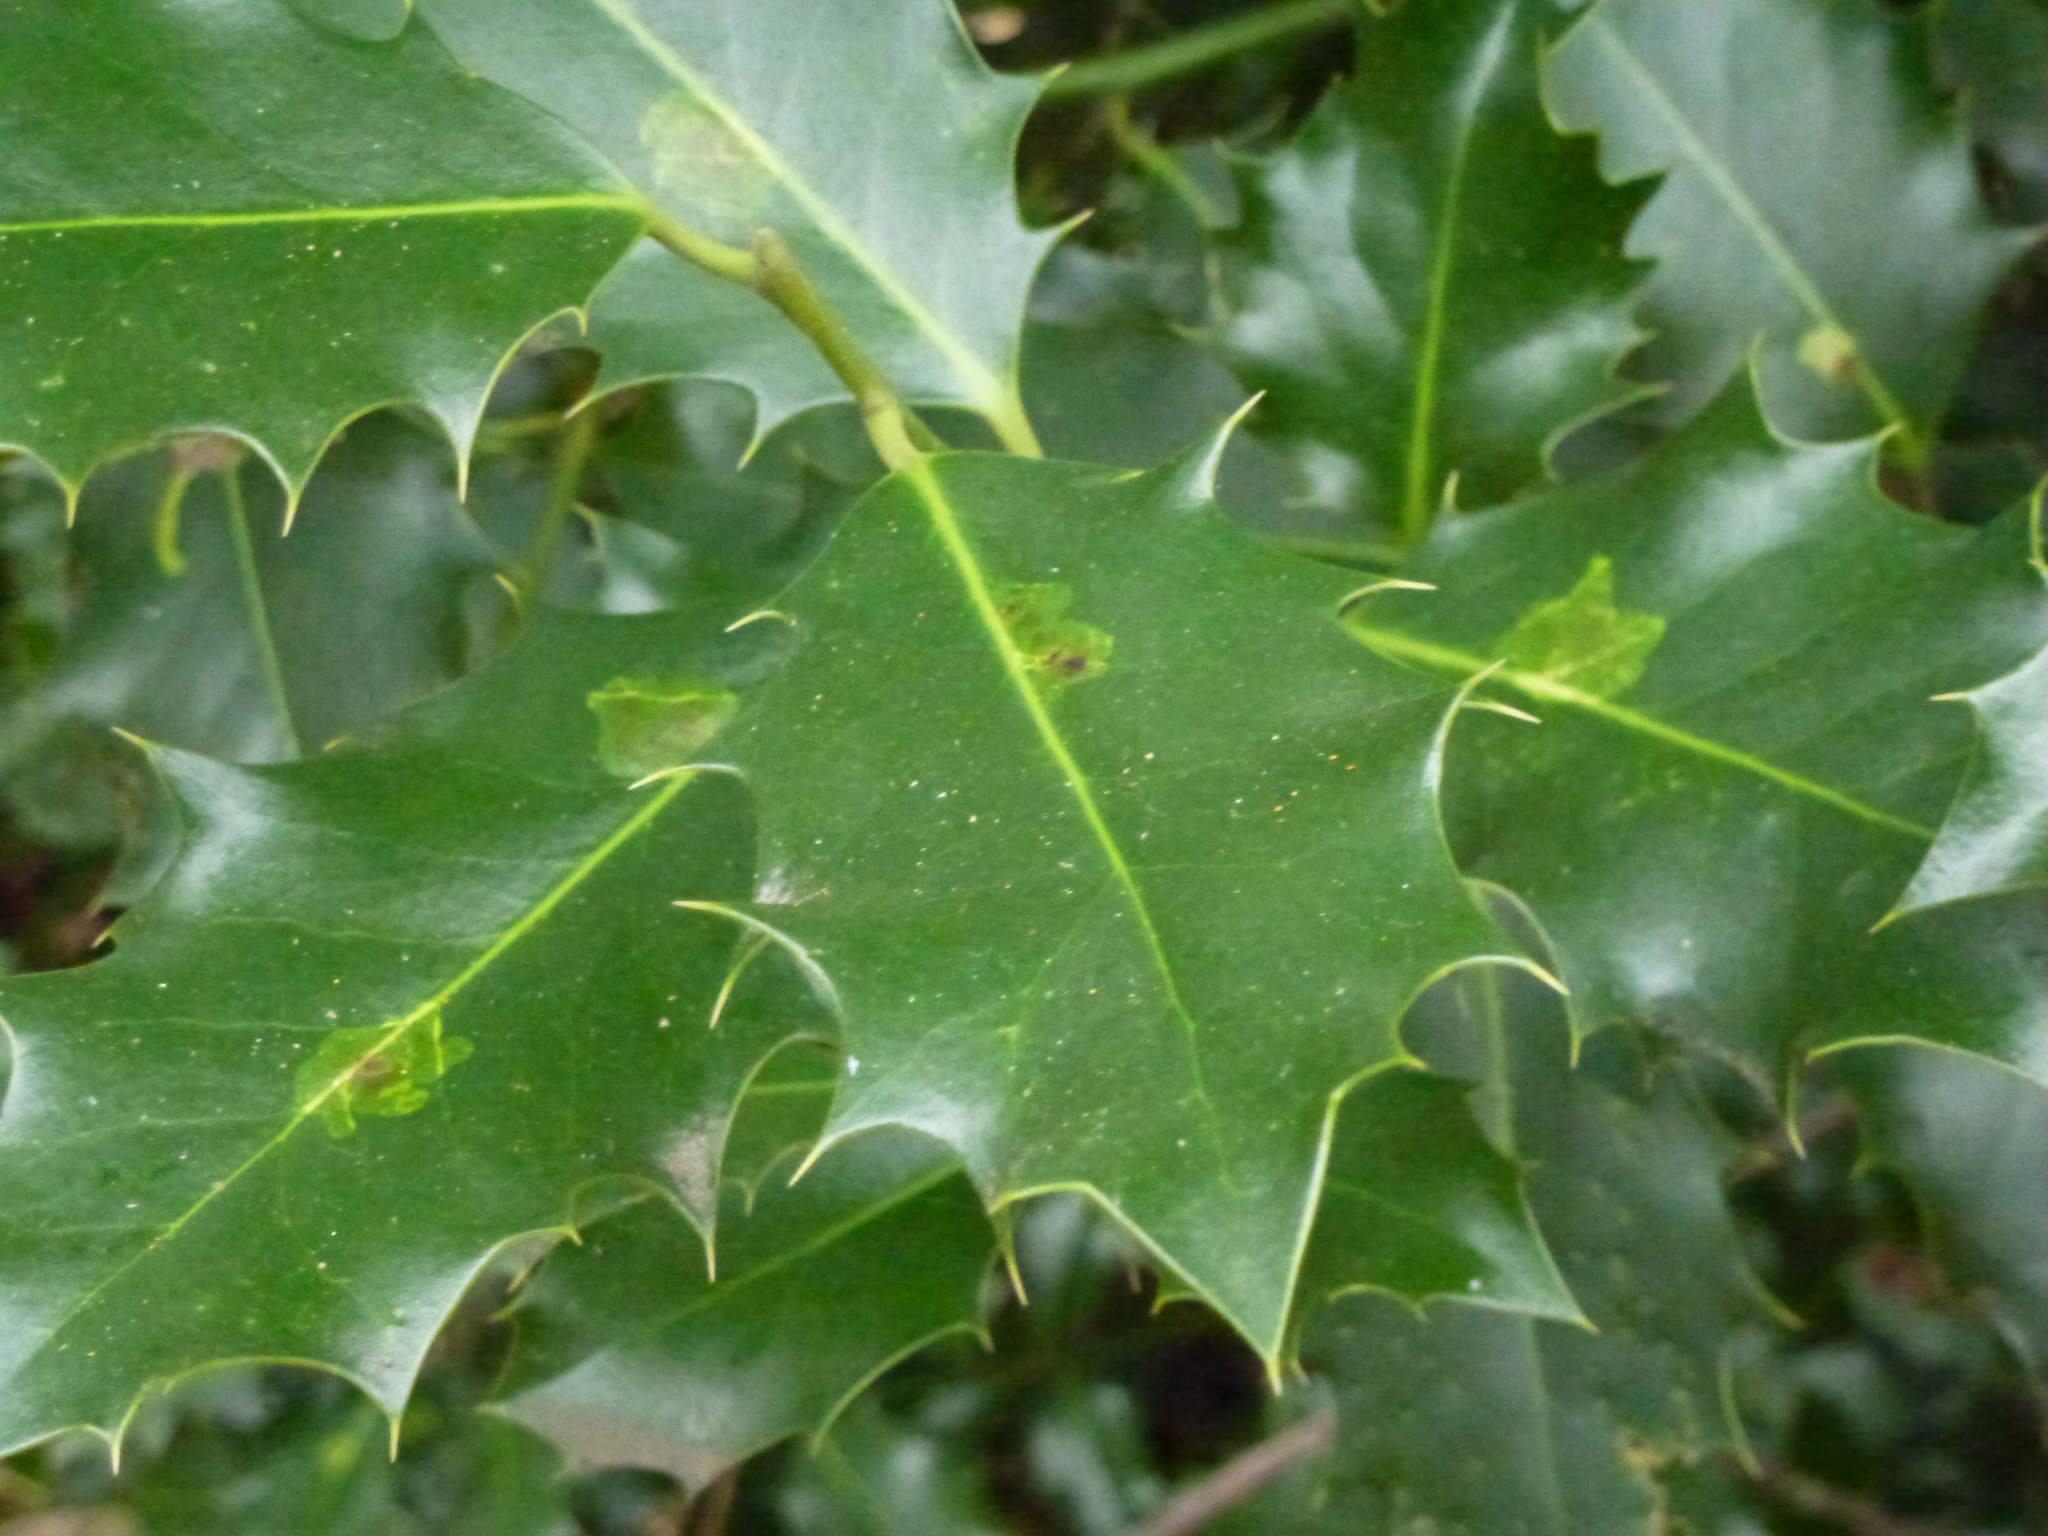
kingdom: Animalia
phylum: Arthropoda
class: Insecta
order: Diptera
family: Agromyzidae
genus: Phytomyza
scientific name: Phytomyza ilicis
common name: Holly leafminer
